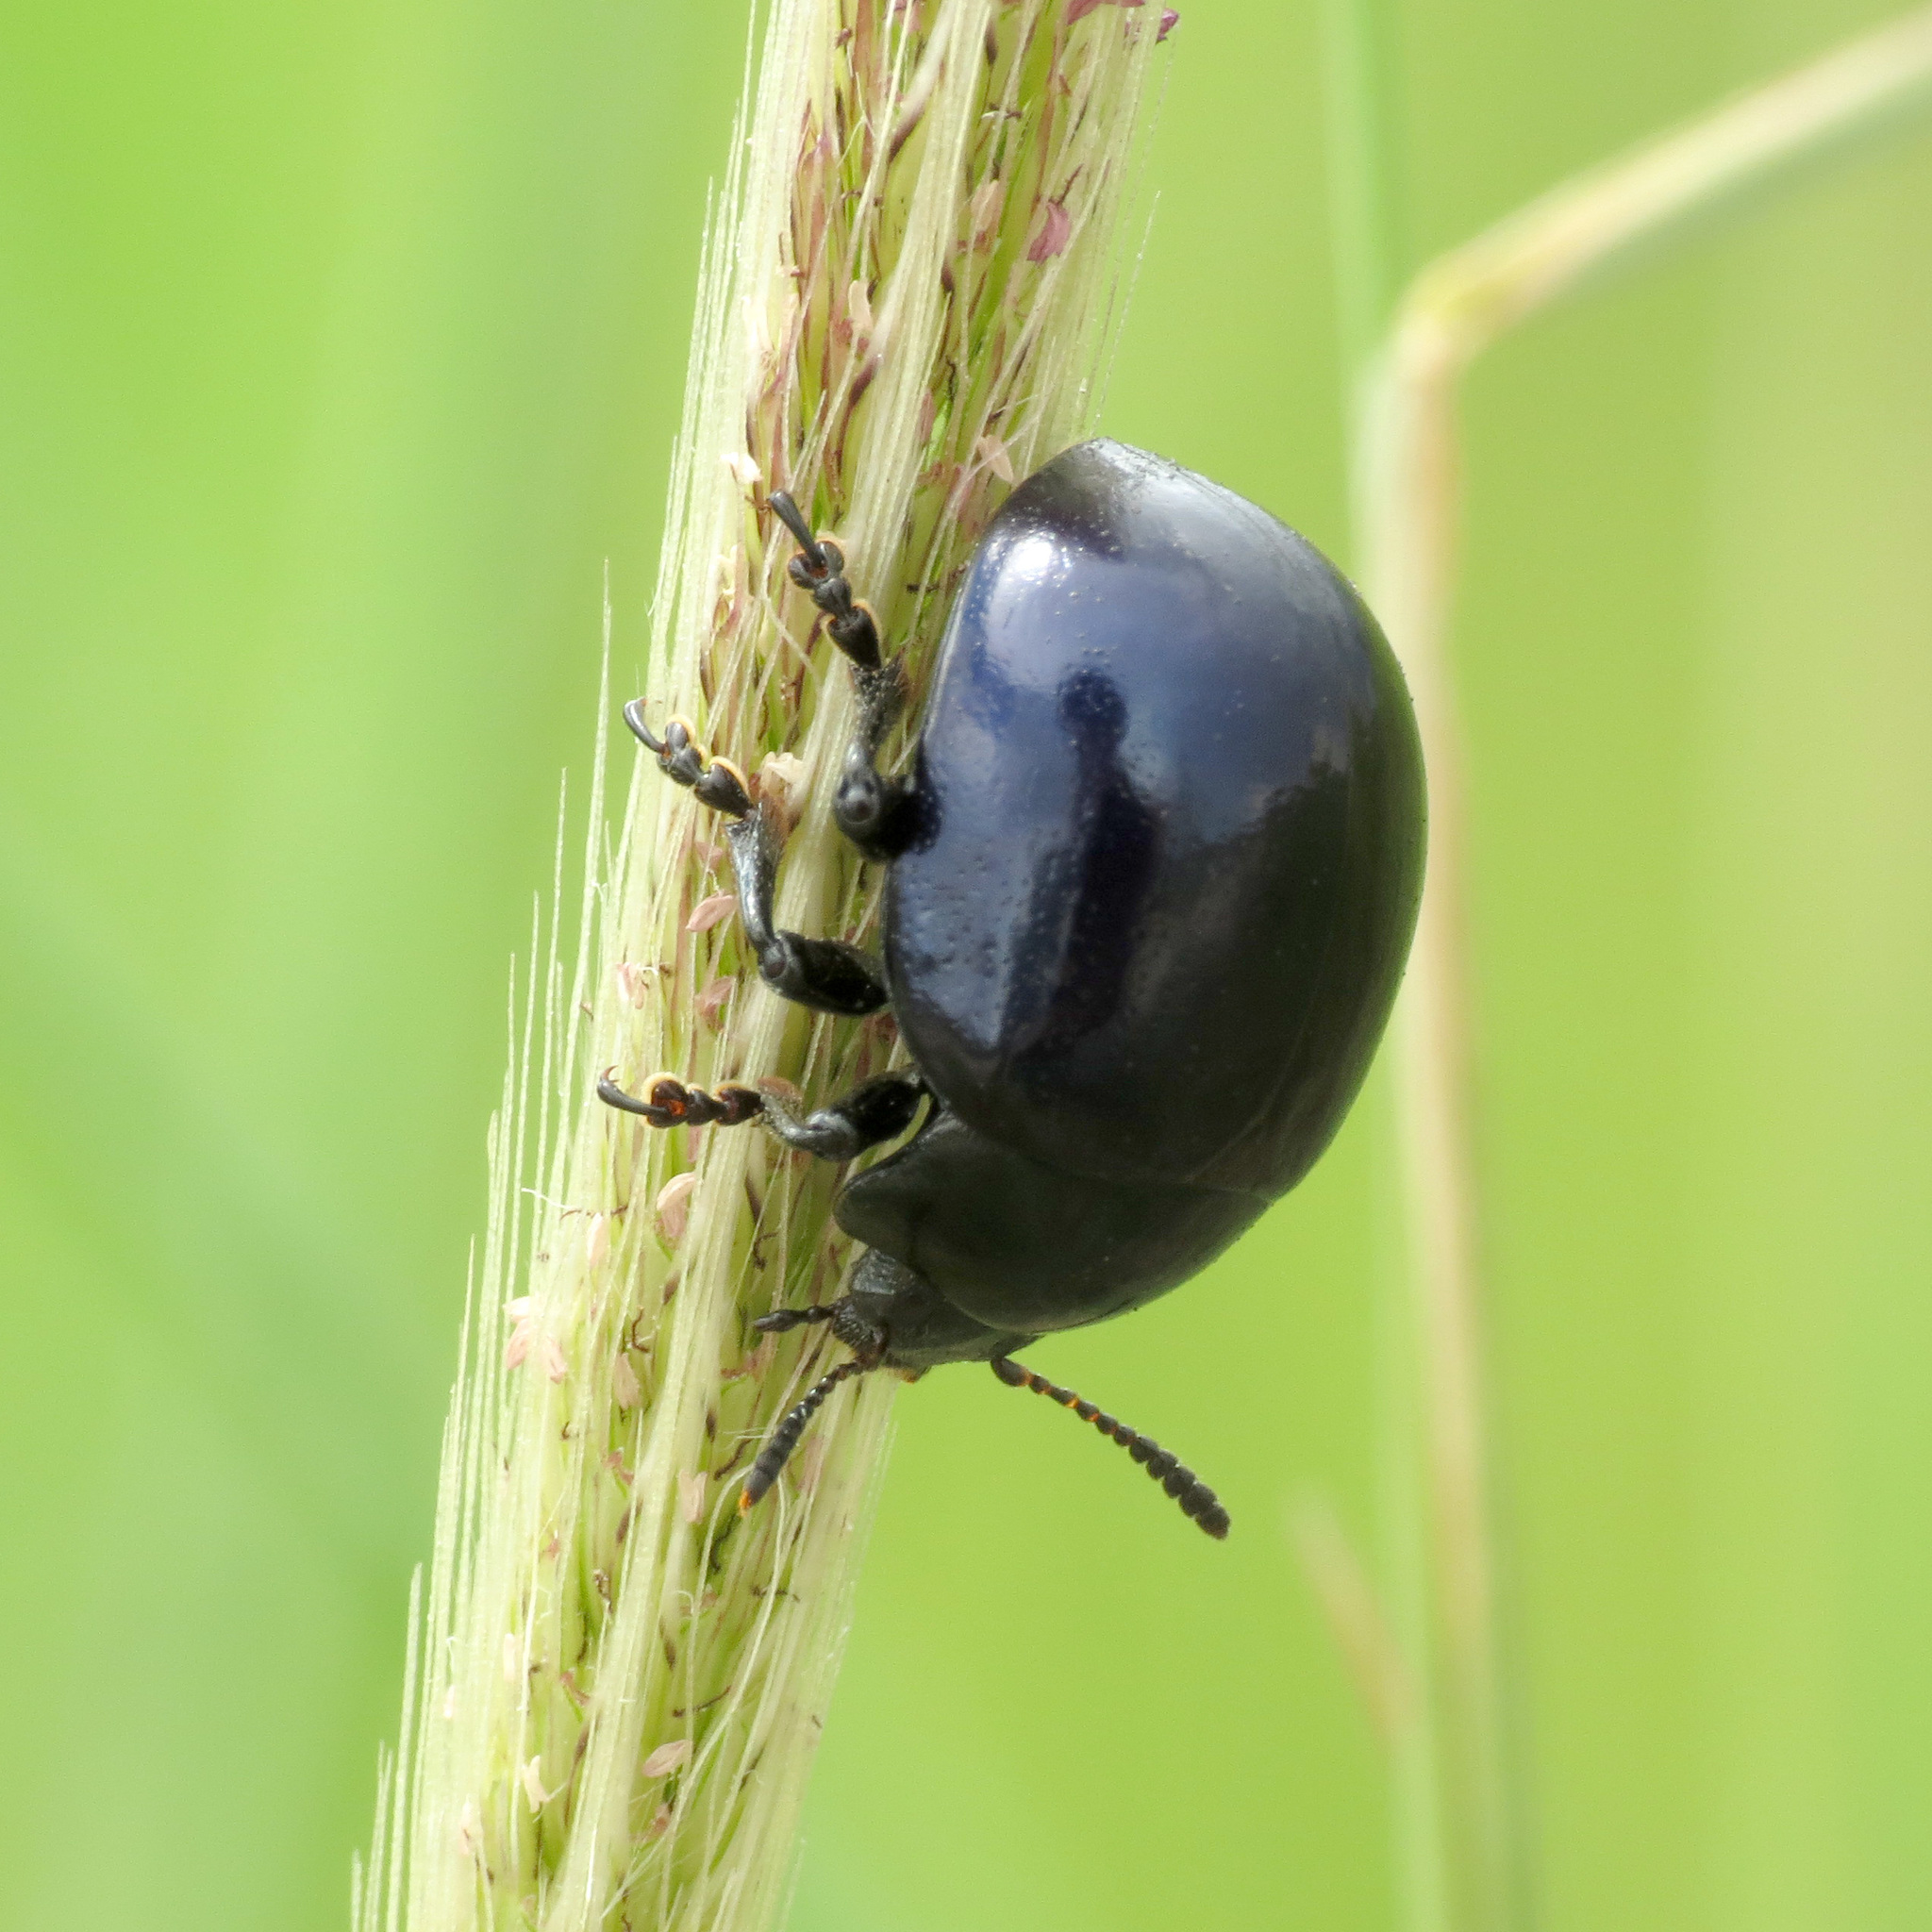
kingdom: Animalia
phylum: Arthropoda
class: Insecta
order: Coleoptera
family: Chrysomelidae
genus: Leptinotarsa
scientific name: Leptinotarsa haldemani
